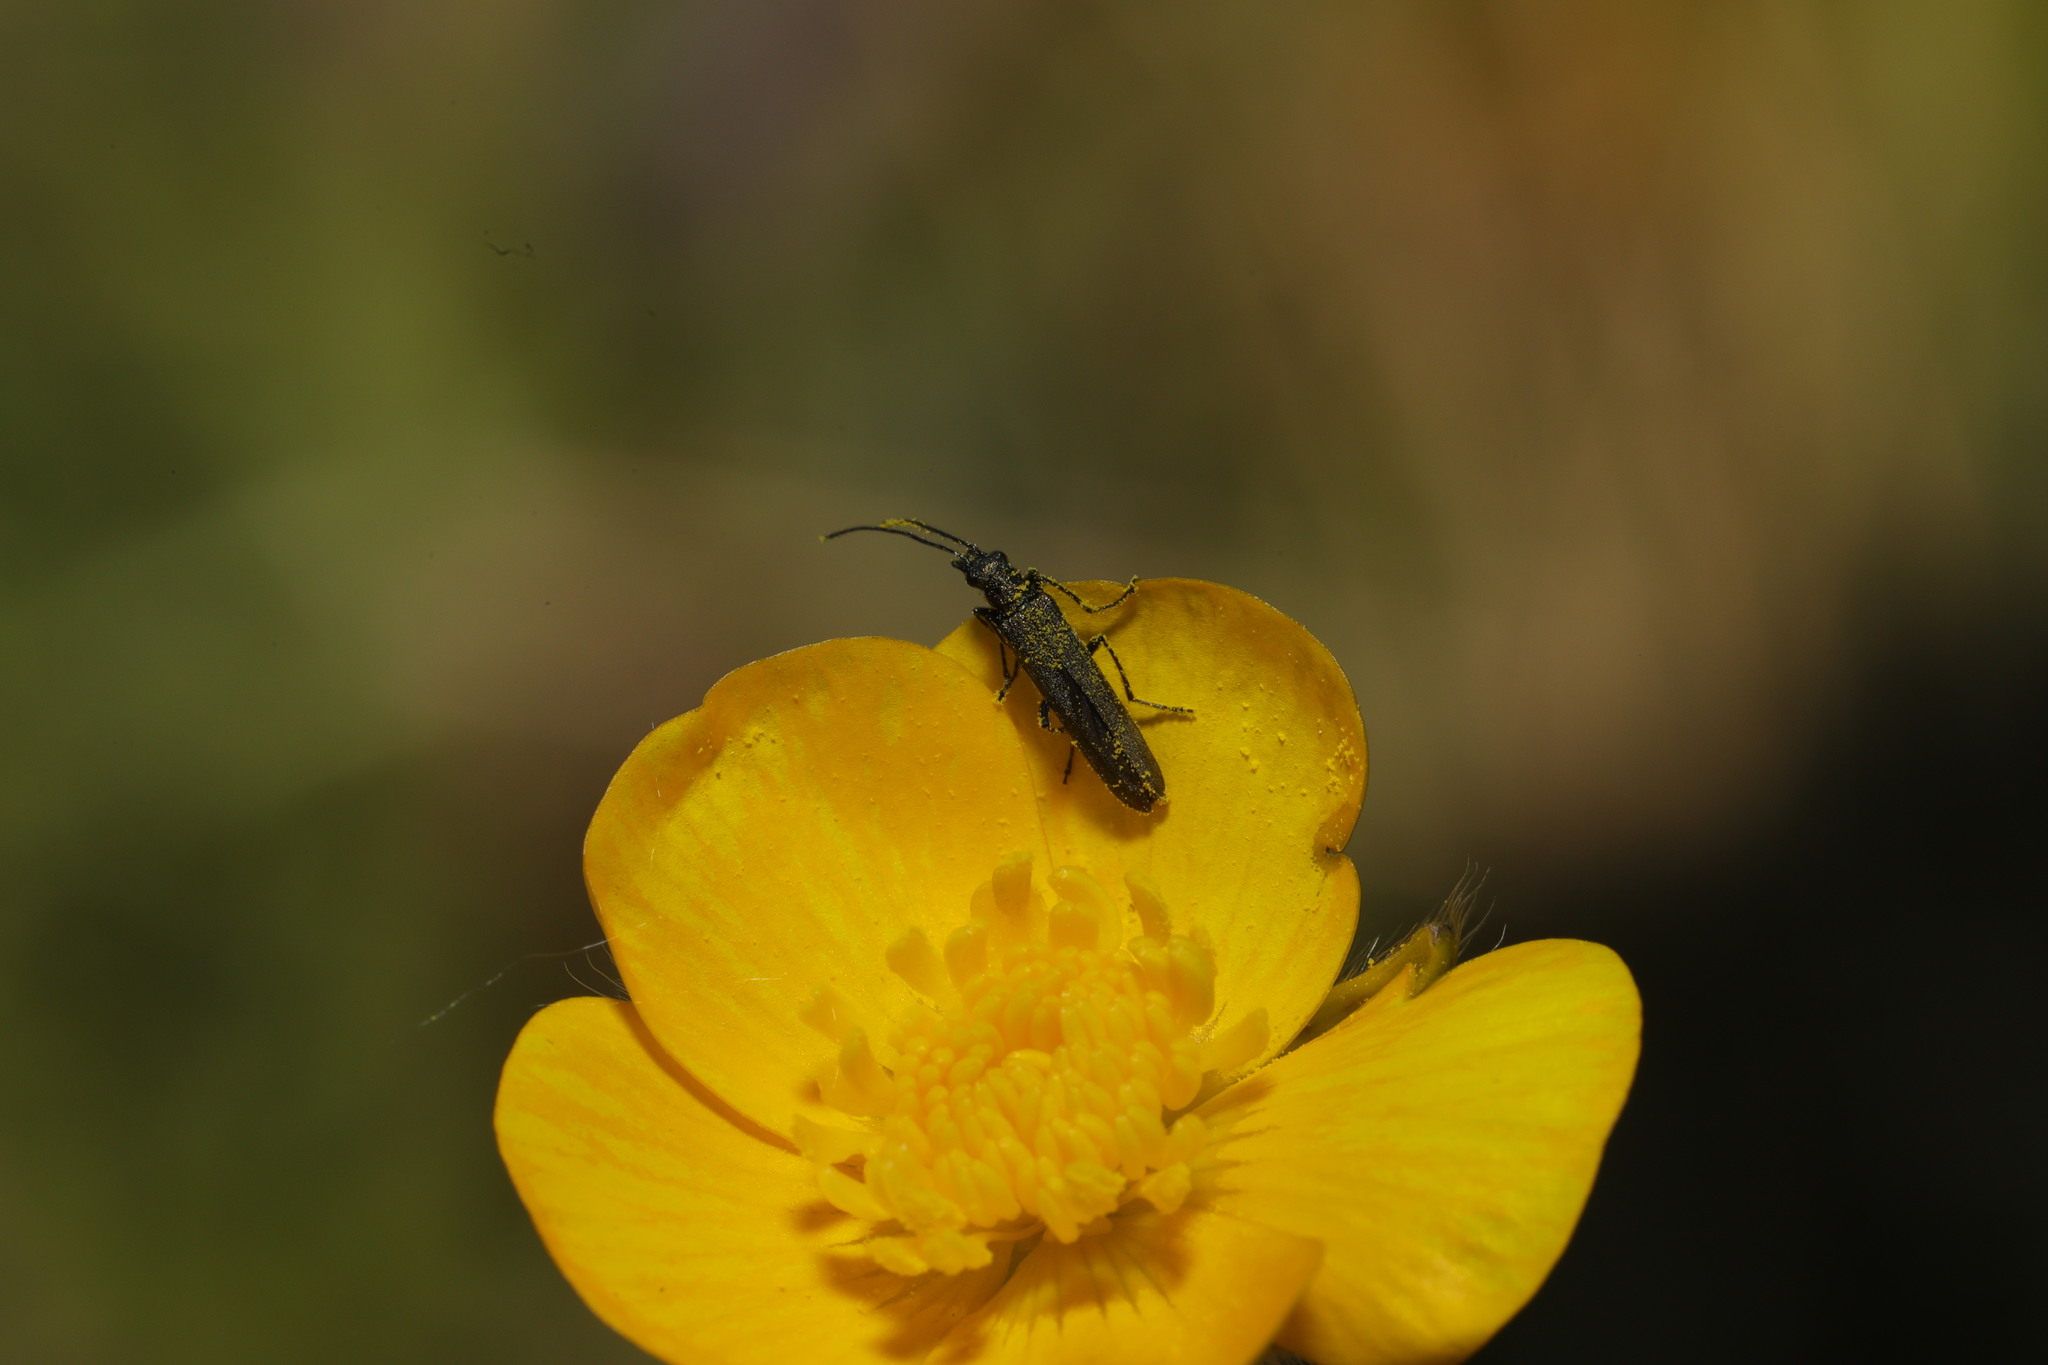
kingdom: Animalia
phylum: Arthropoda
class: Insecta
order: Coleoptera
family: Oedemeridae
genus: Oedemera
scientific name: Oedemera lurida
